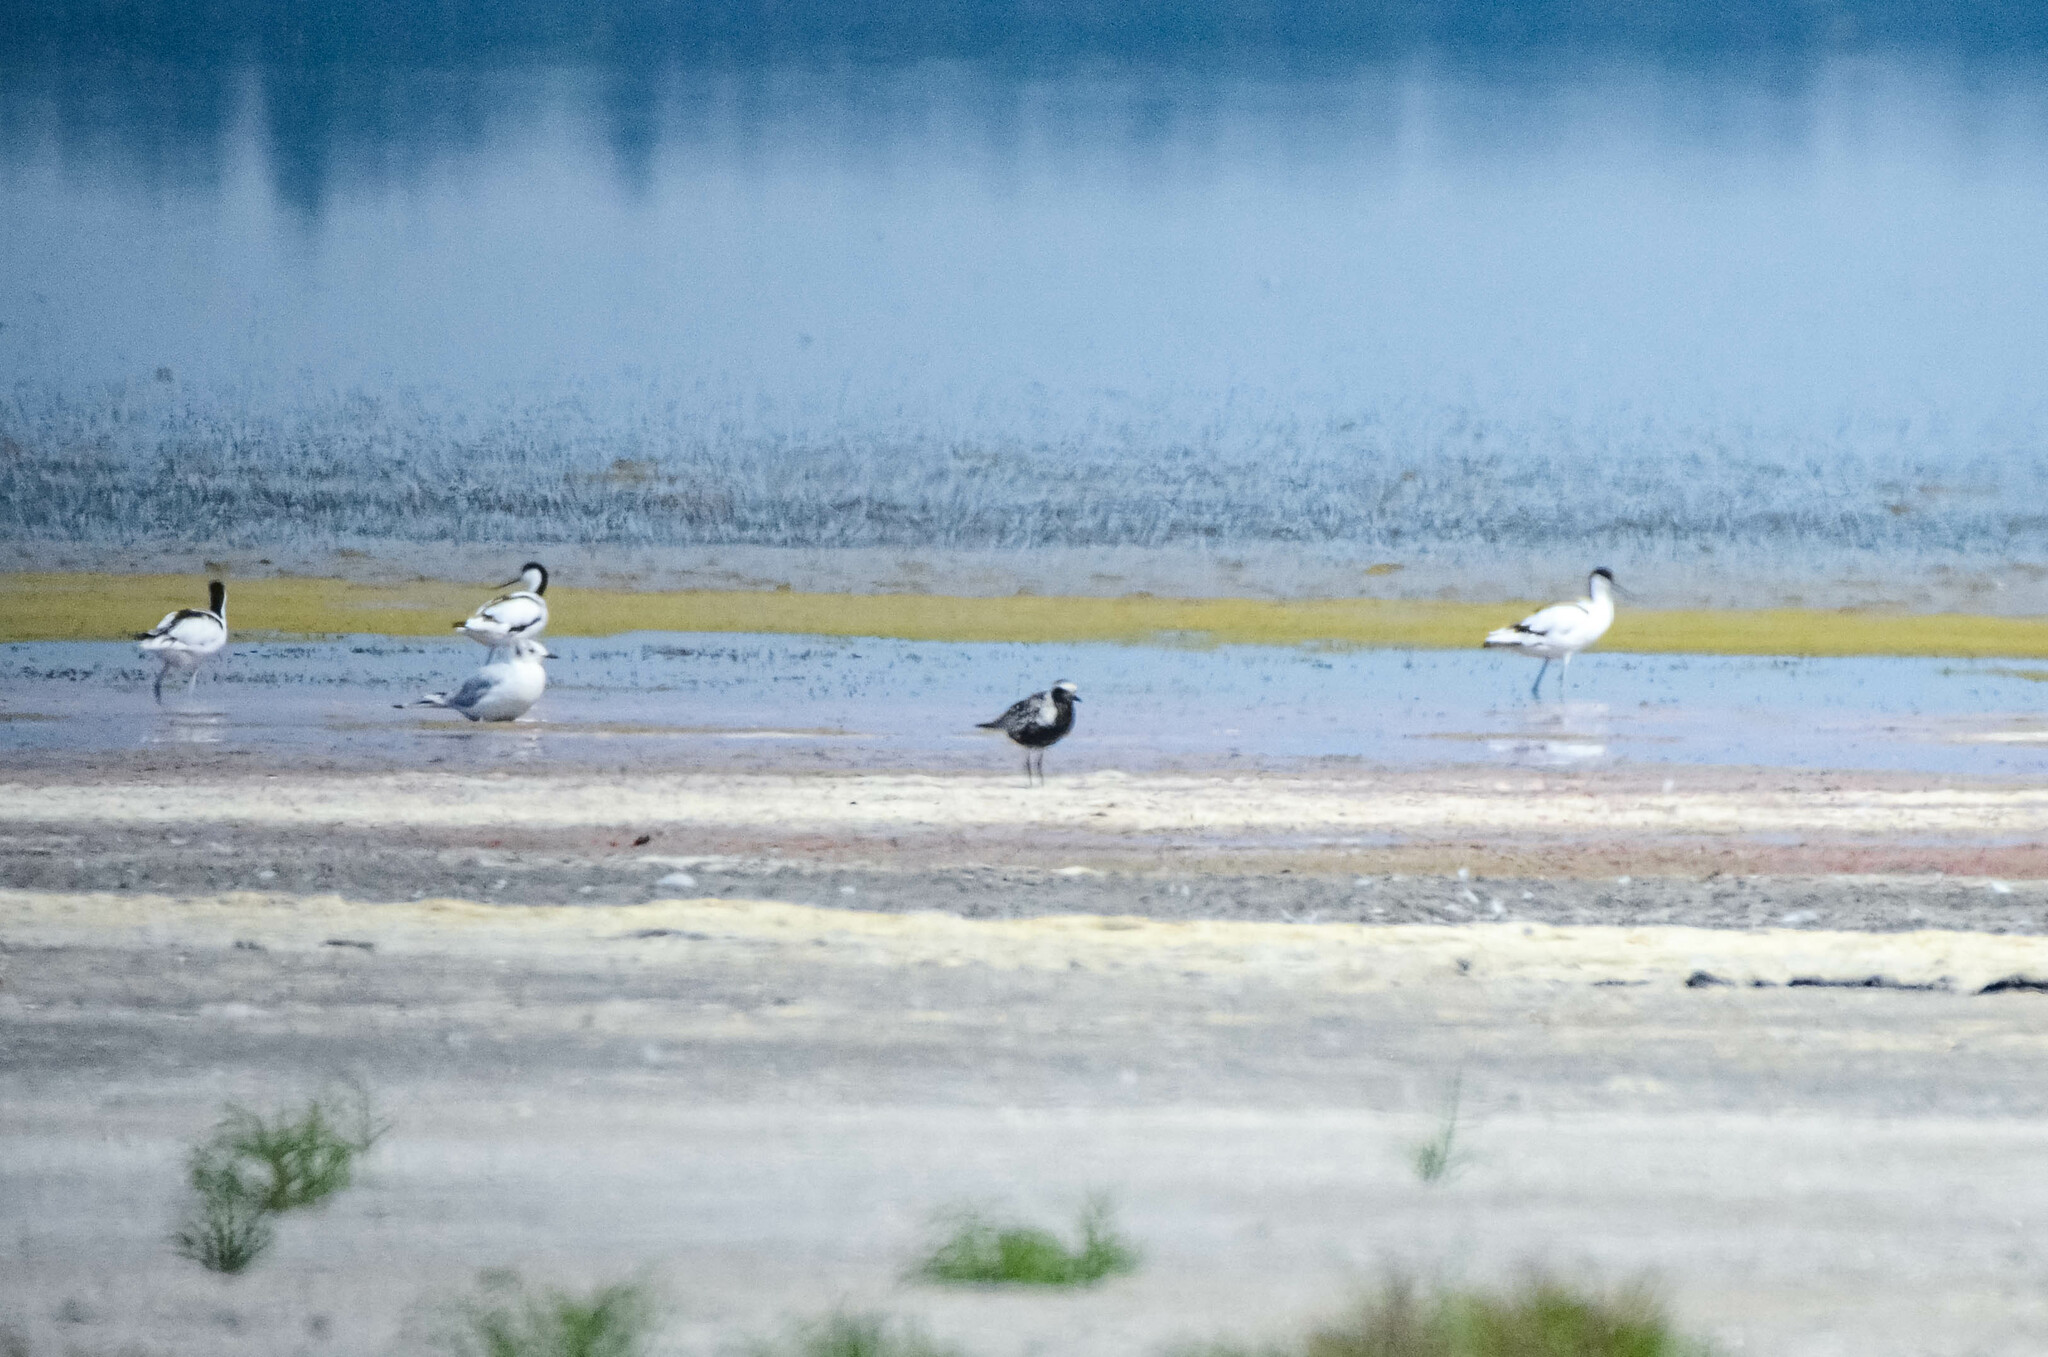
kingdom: Animalia
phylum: Chordata
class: Aves
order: Charadriiformes
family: Charadriidae
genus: Pluvialis
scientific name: Pluvialis squatarola
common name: Grey plover
